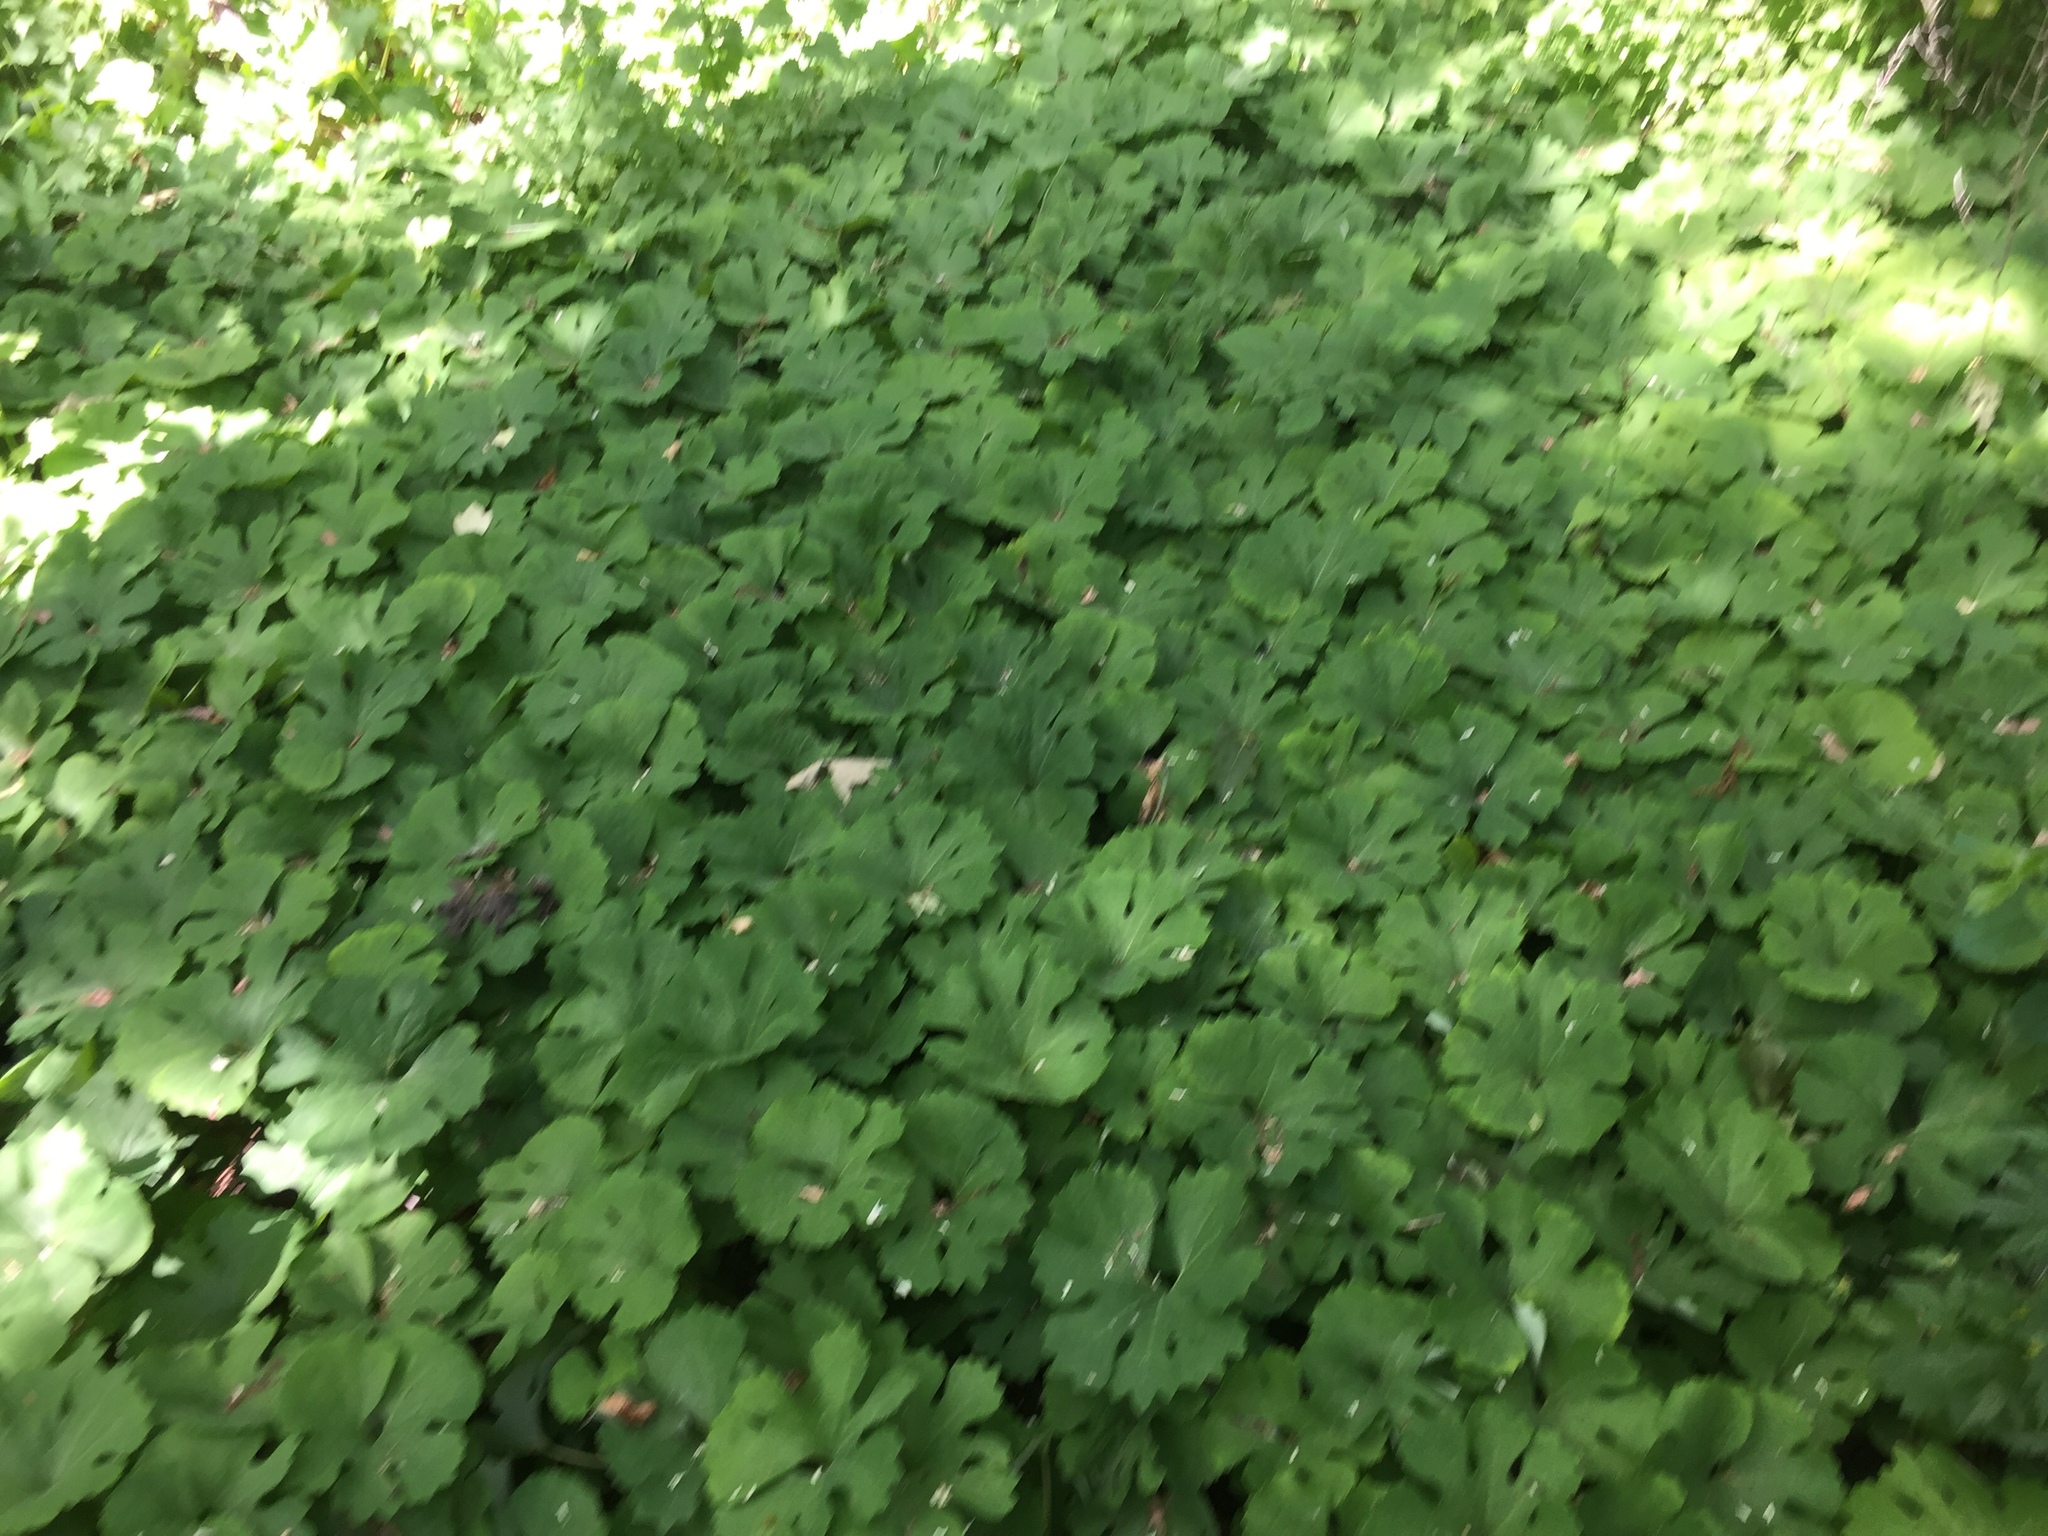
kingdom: Plantae
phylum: Tracheophyta
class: Magnoliopsida
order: Ranunculales
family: Papaveraceae
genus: Sanguinaria
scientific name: Sanguinaria canadensis
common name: Bloodroot
